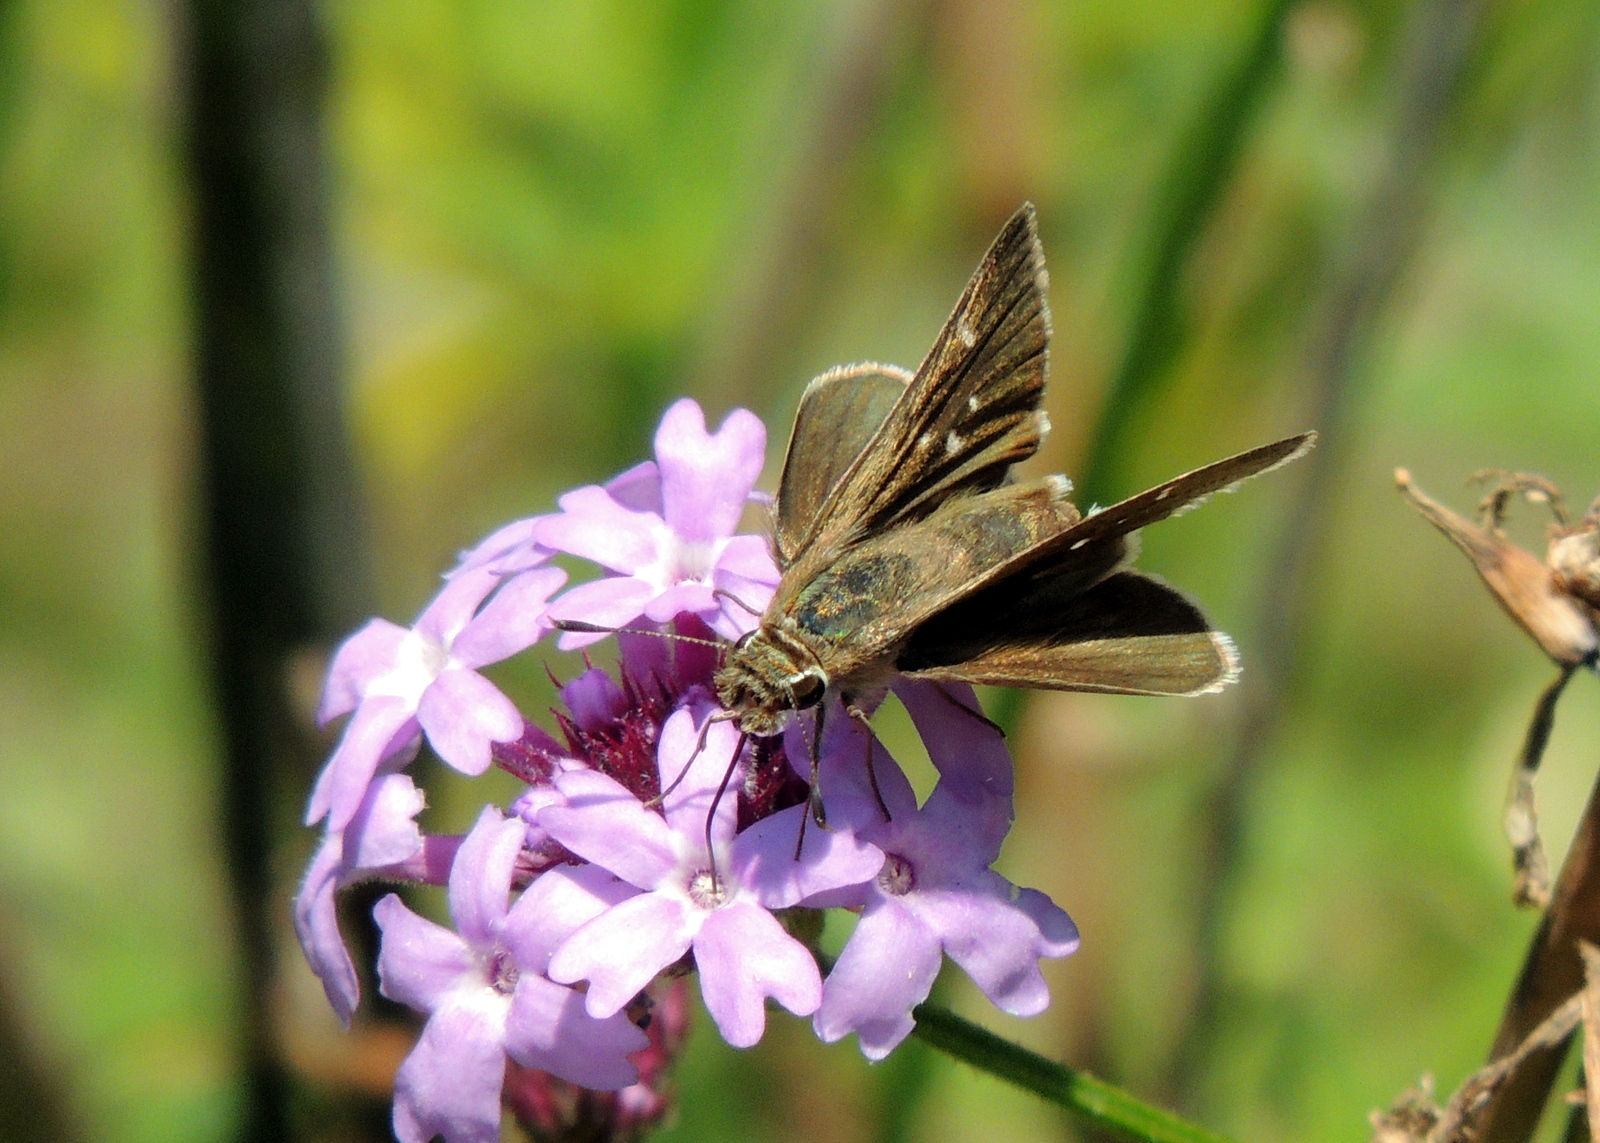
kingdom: Animalia
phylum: Arthropoda
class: Insecta
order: Lepidoptera
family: Hesperiidae
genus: Lerodea
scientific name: Lerodea eufala
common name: Eufala skipper
